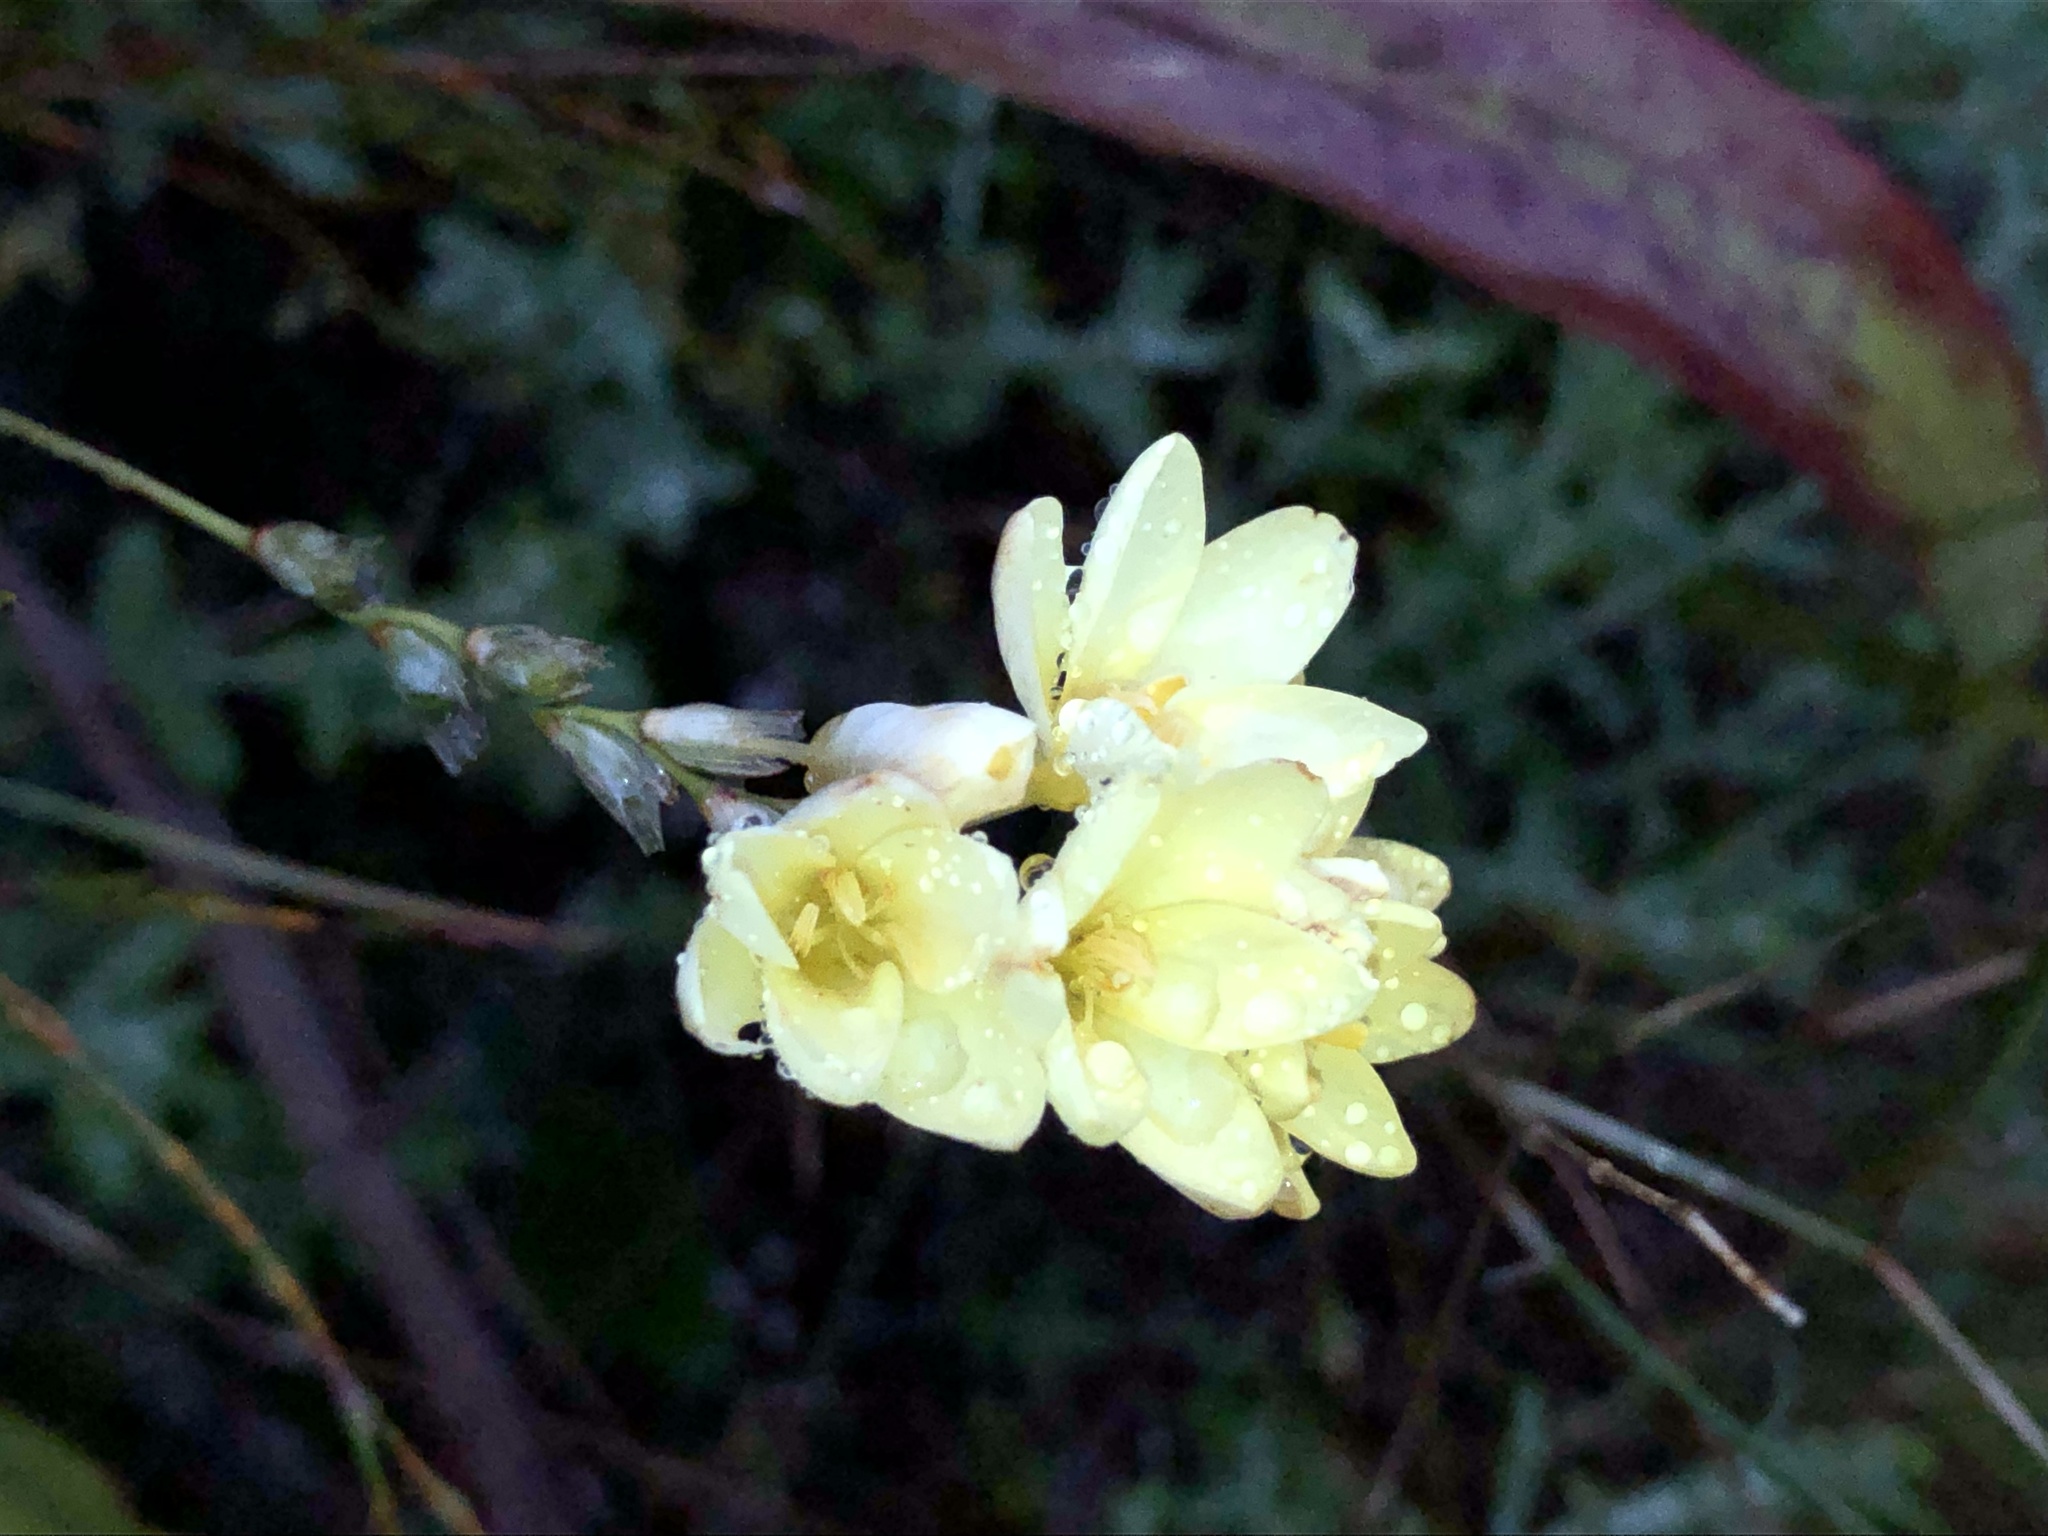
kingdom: Plantae
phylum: Tracheophyta
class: Liliopsida
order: Asparagales
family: Iridaceae
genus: Ixia
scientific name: Ixia odorata
